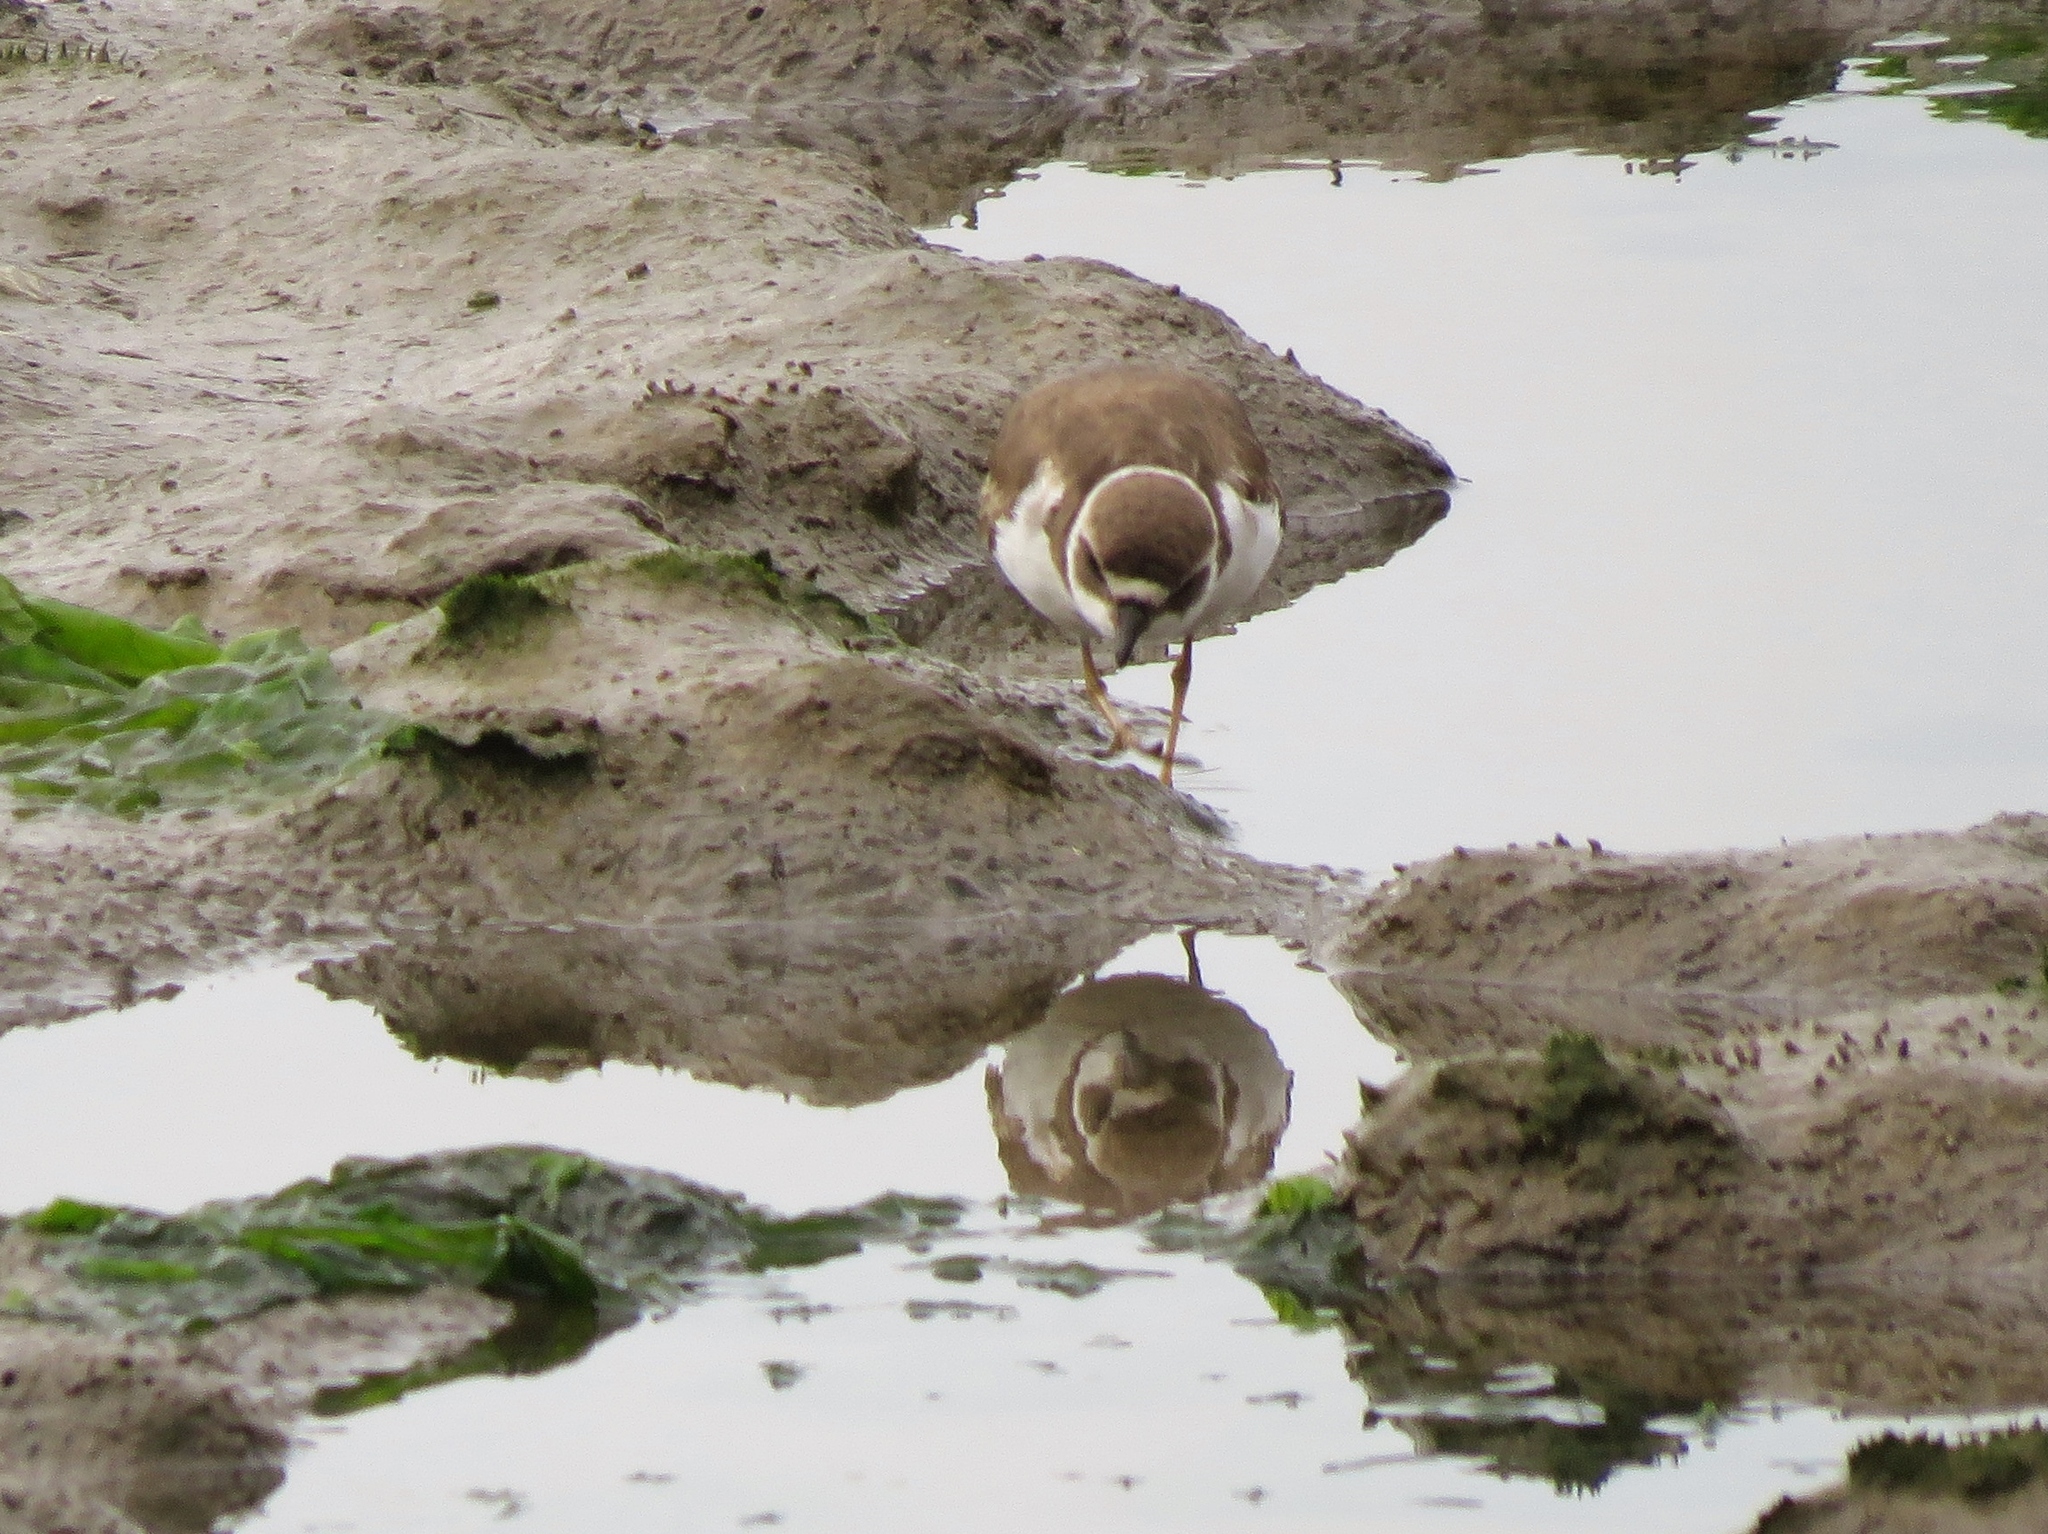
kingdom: Animalia
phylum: Chordata
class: Aves
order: Charadriiformes
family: Charadriidae
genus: Charadrius
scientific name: Charadrius semipalmatus
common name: Semipalmated plover
